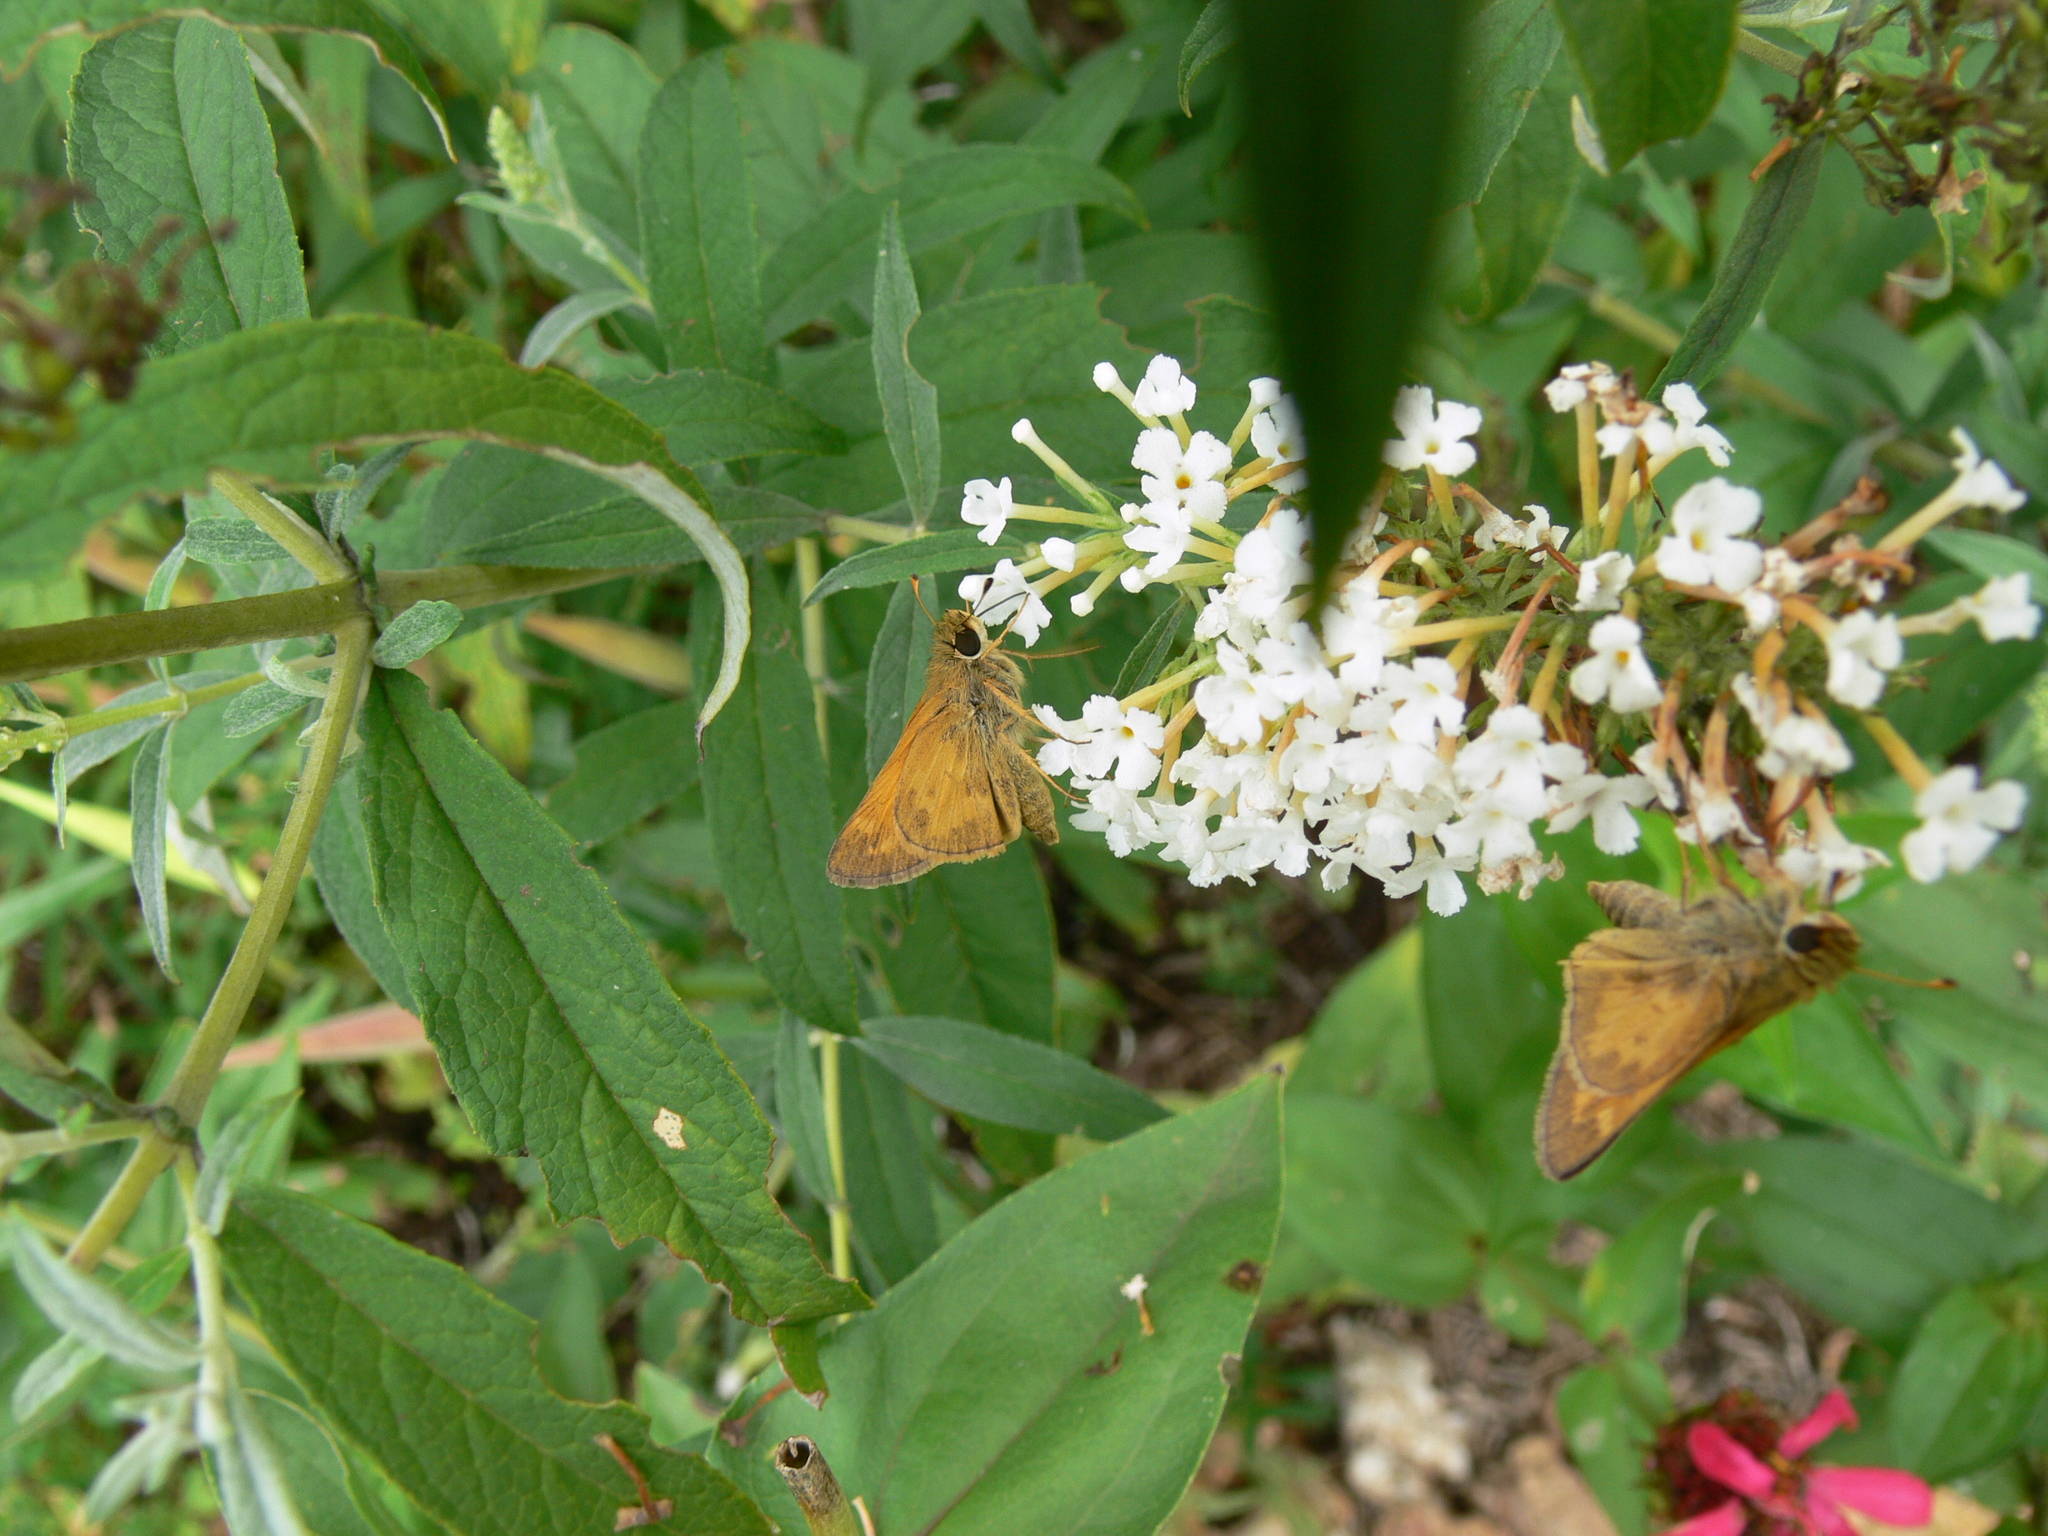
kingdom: Animalia
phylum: Arthropoda
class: Insecta
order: Lepidoptera
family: Hesperiidae
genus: Atalopedes
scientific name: Atalopedes
